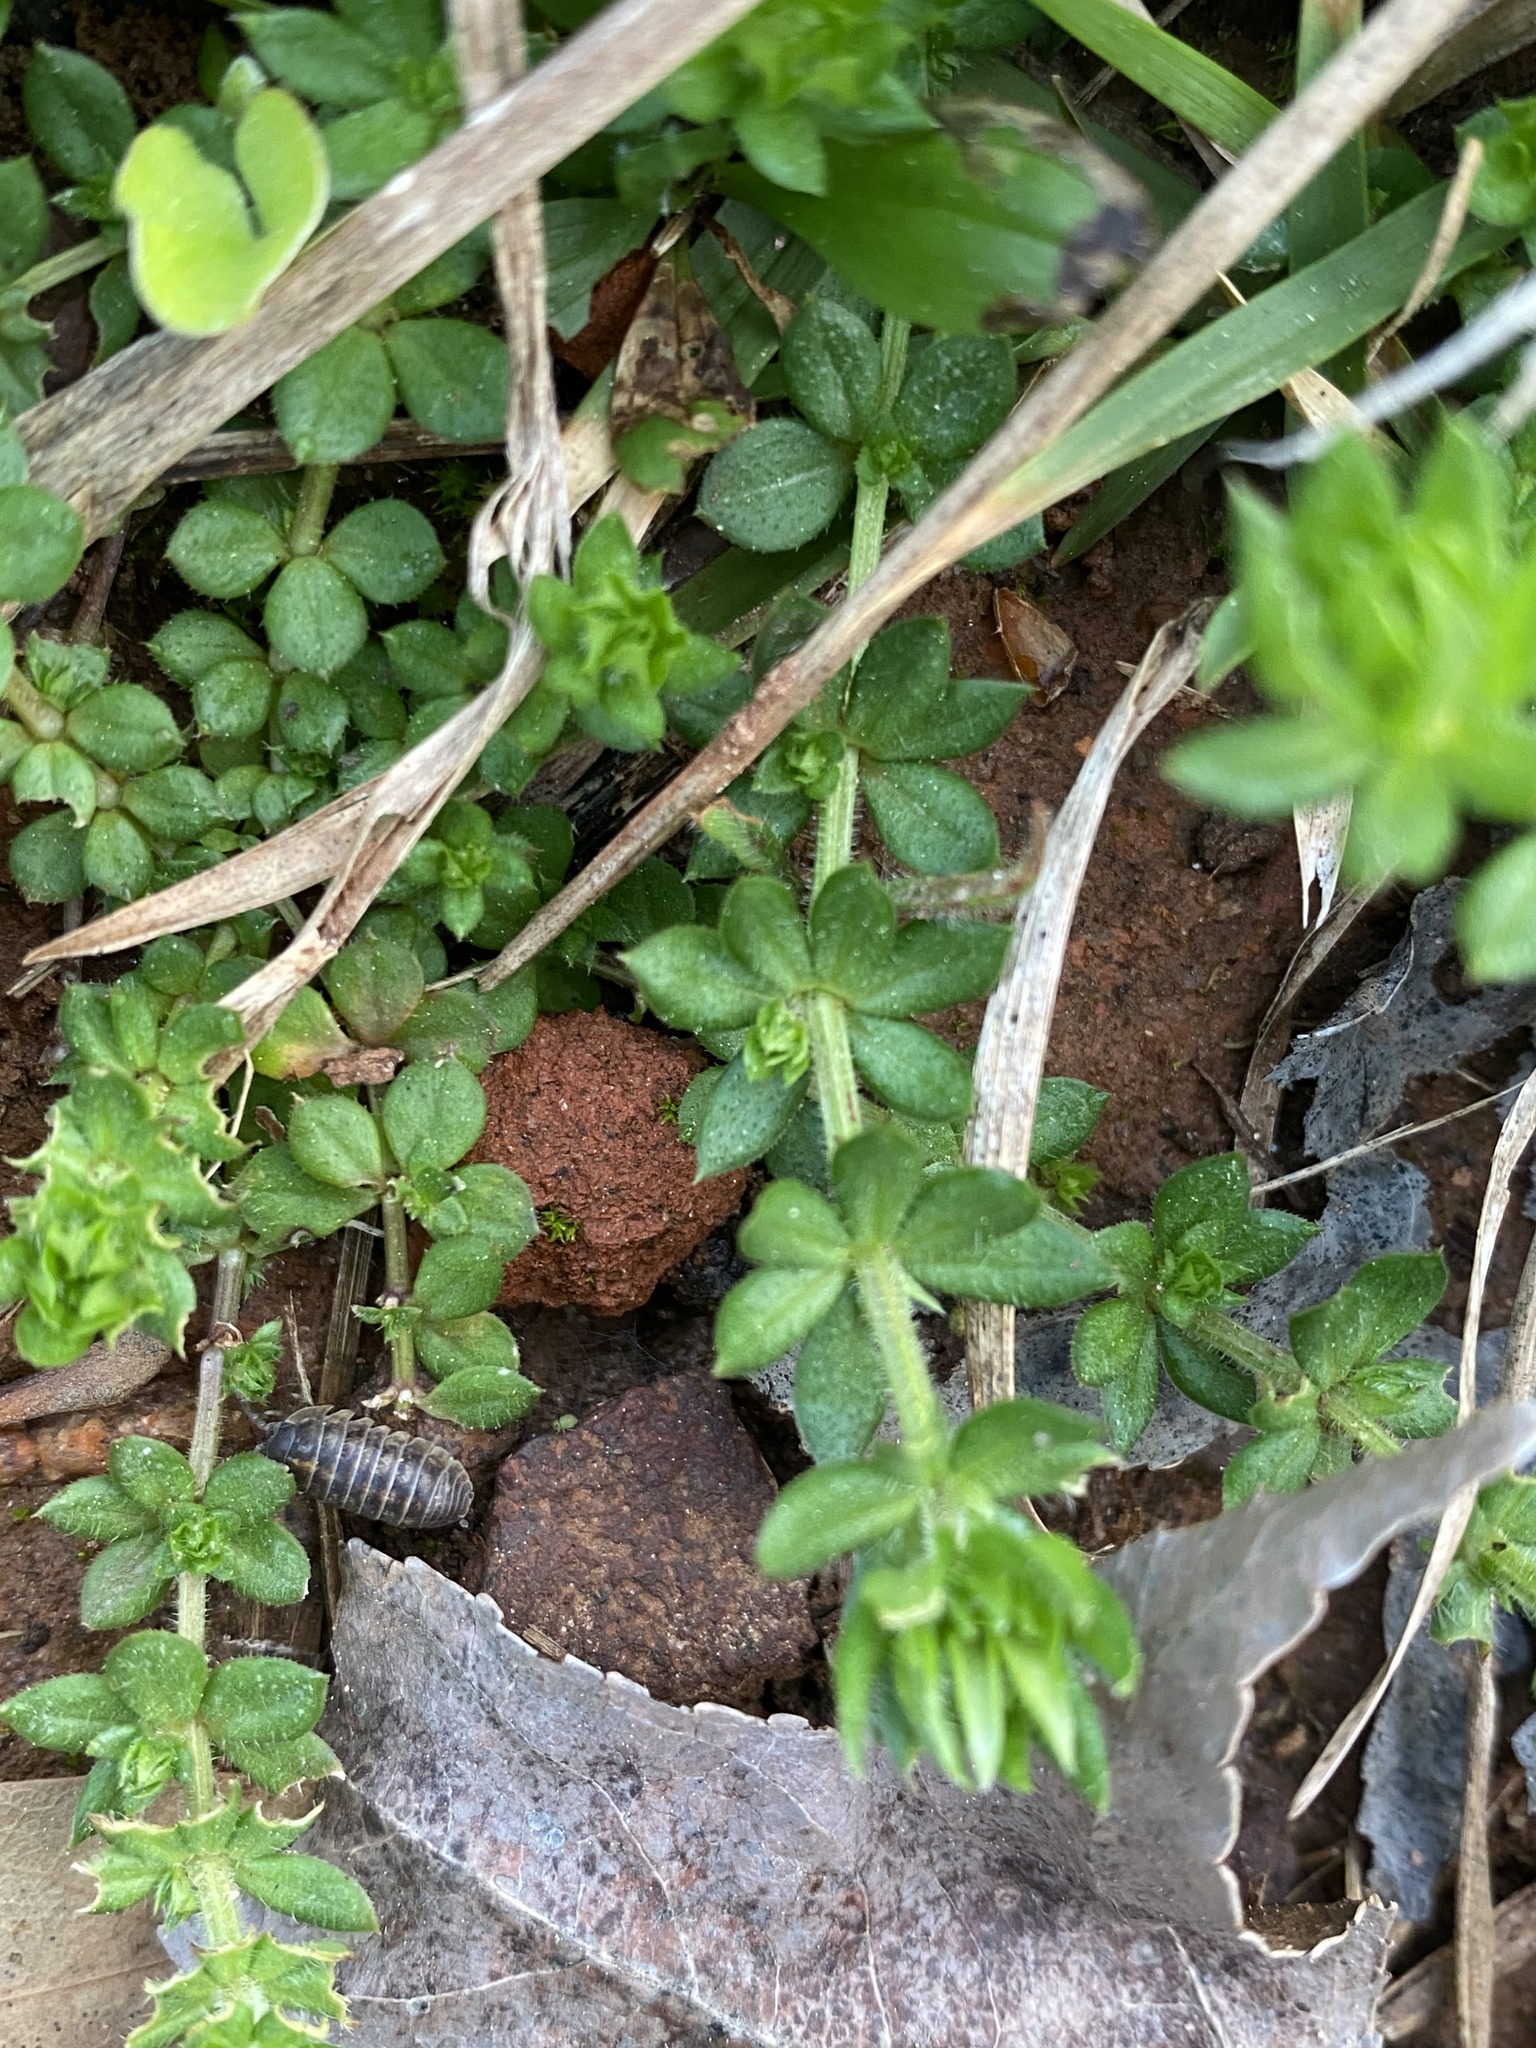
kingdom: Plantae
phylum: Tracheophyta
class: Magnoliopsida
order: Gentianales
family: Rubiaceae
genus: Sherardia
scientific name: Sherardia arvensis
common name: Field madder
